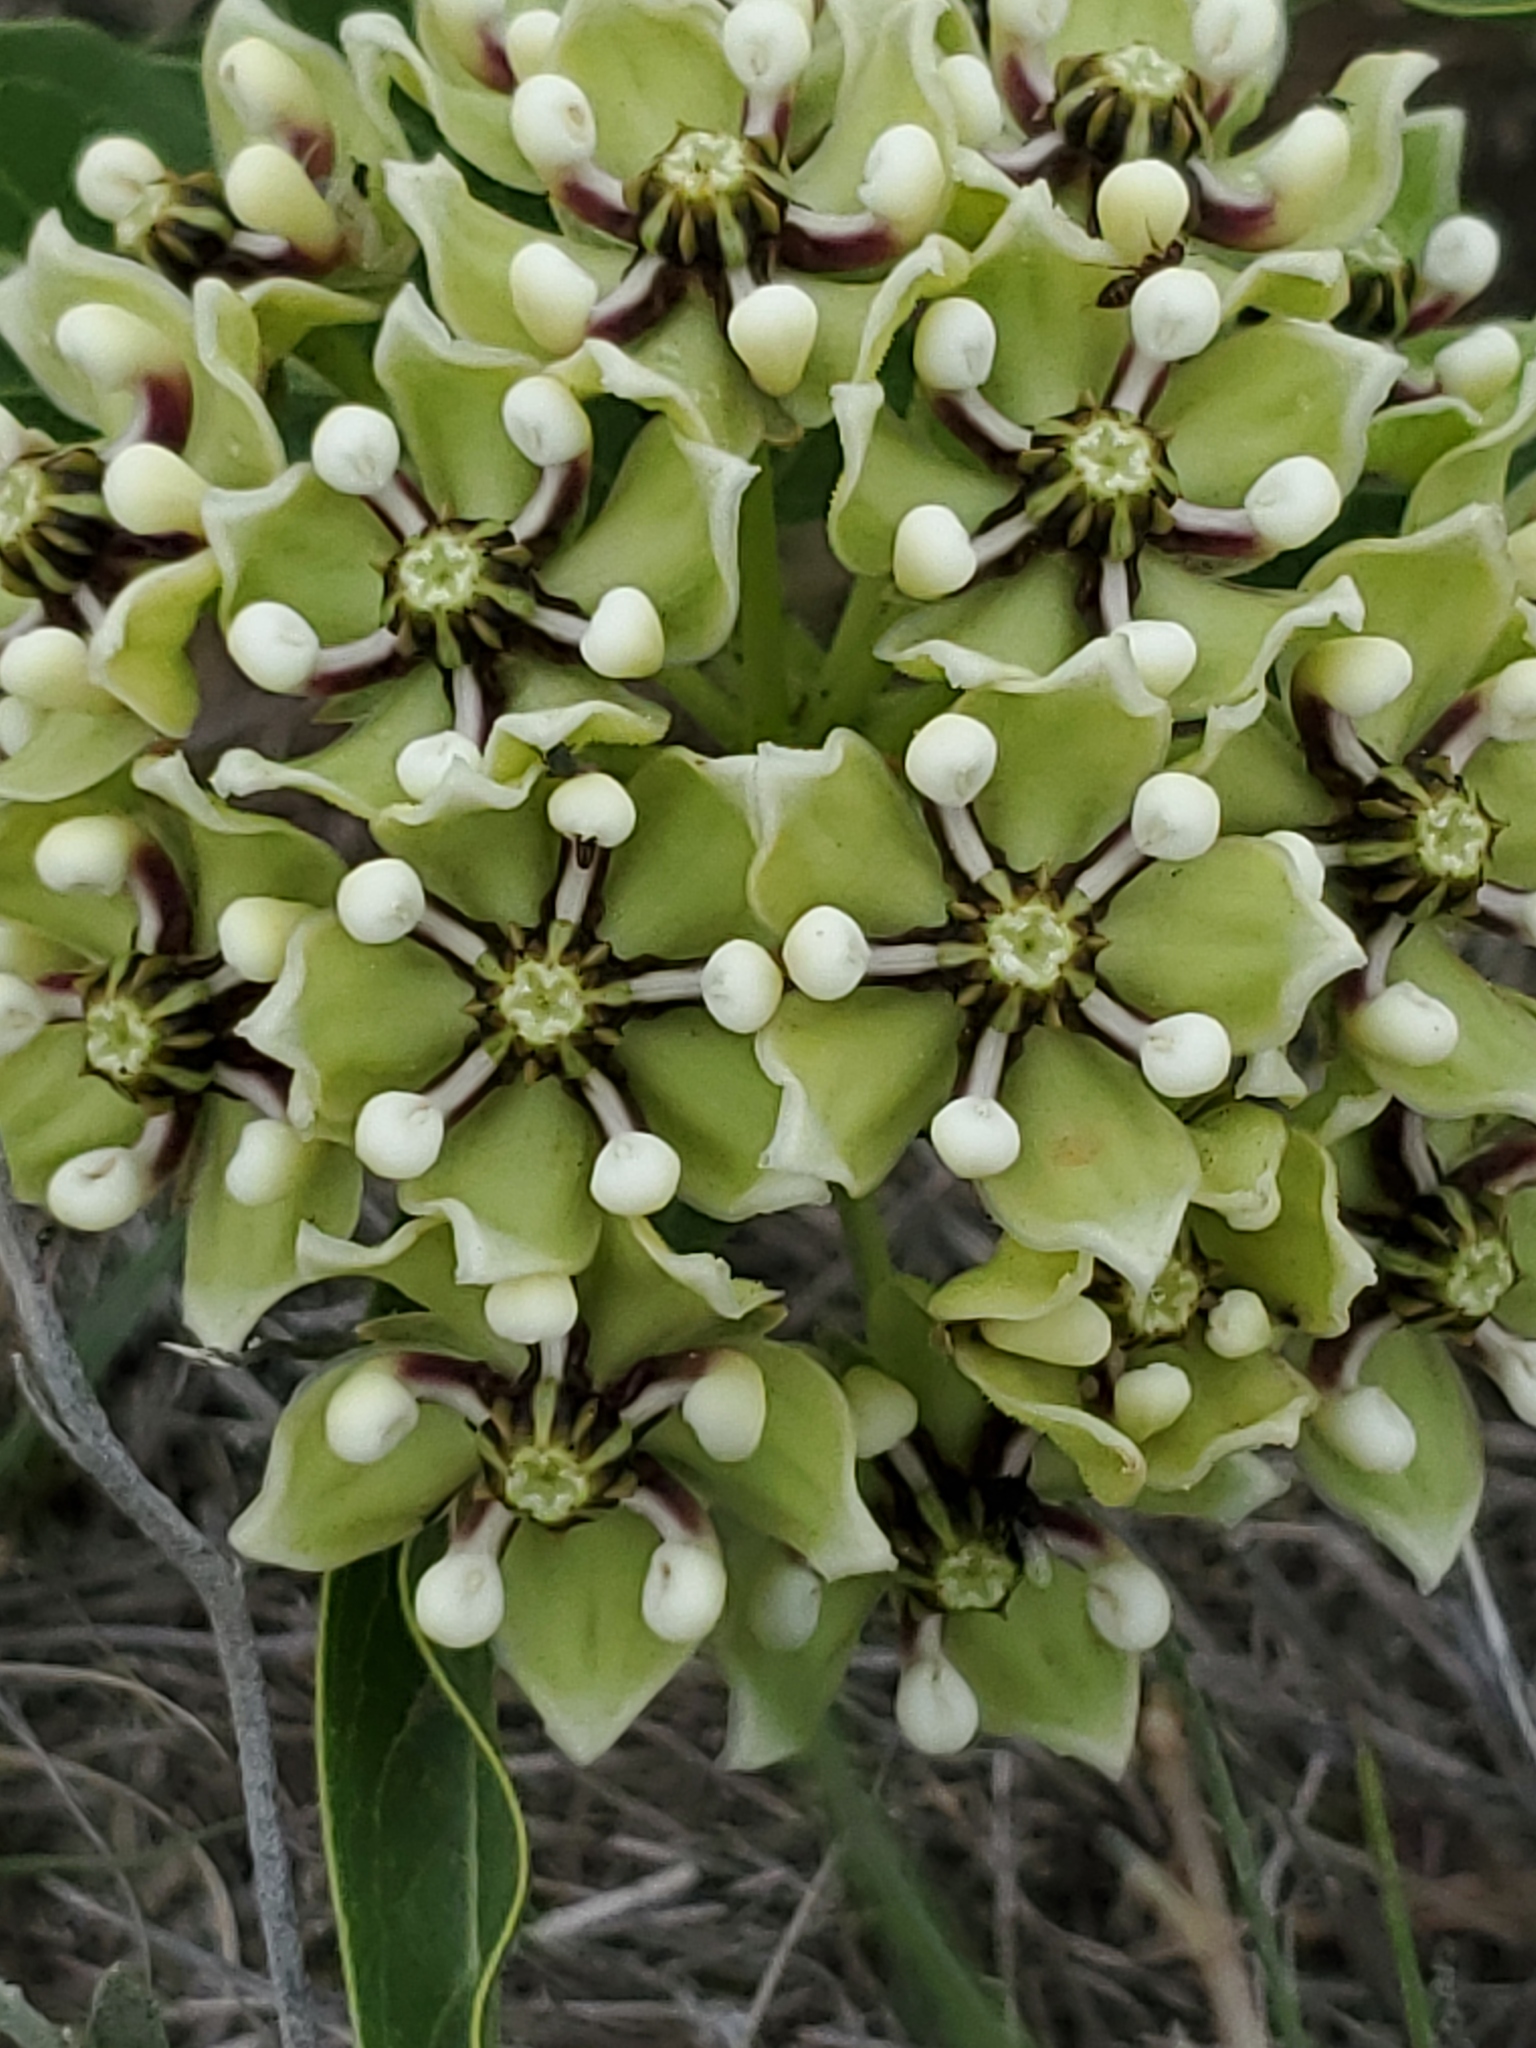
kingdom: Plantae
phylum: Tracheophyta
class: Magnoliopsida
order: Gentianales
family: Apocynaceae
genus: Asclepias
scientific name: Asclepias asperula
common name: Antelope horns
